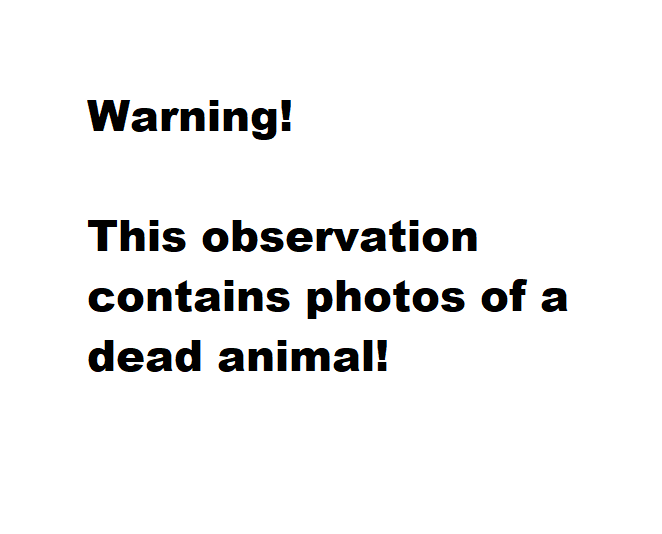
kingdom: Animalia
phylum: Chordata
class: Mammalia
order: Cingulata
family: Dasypodidae
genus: Dasypus
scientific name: Dasypus novemcinctus
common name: Nine-banded armadillo
